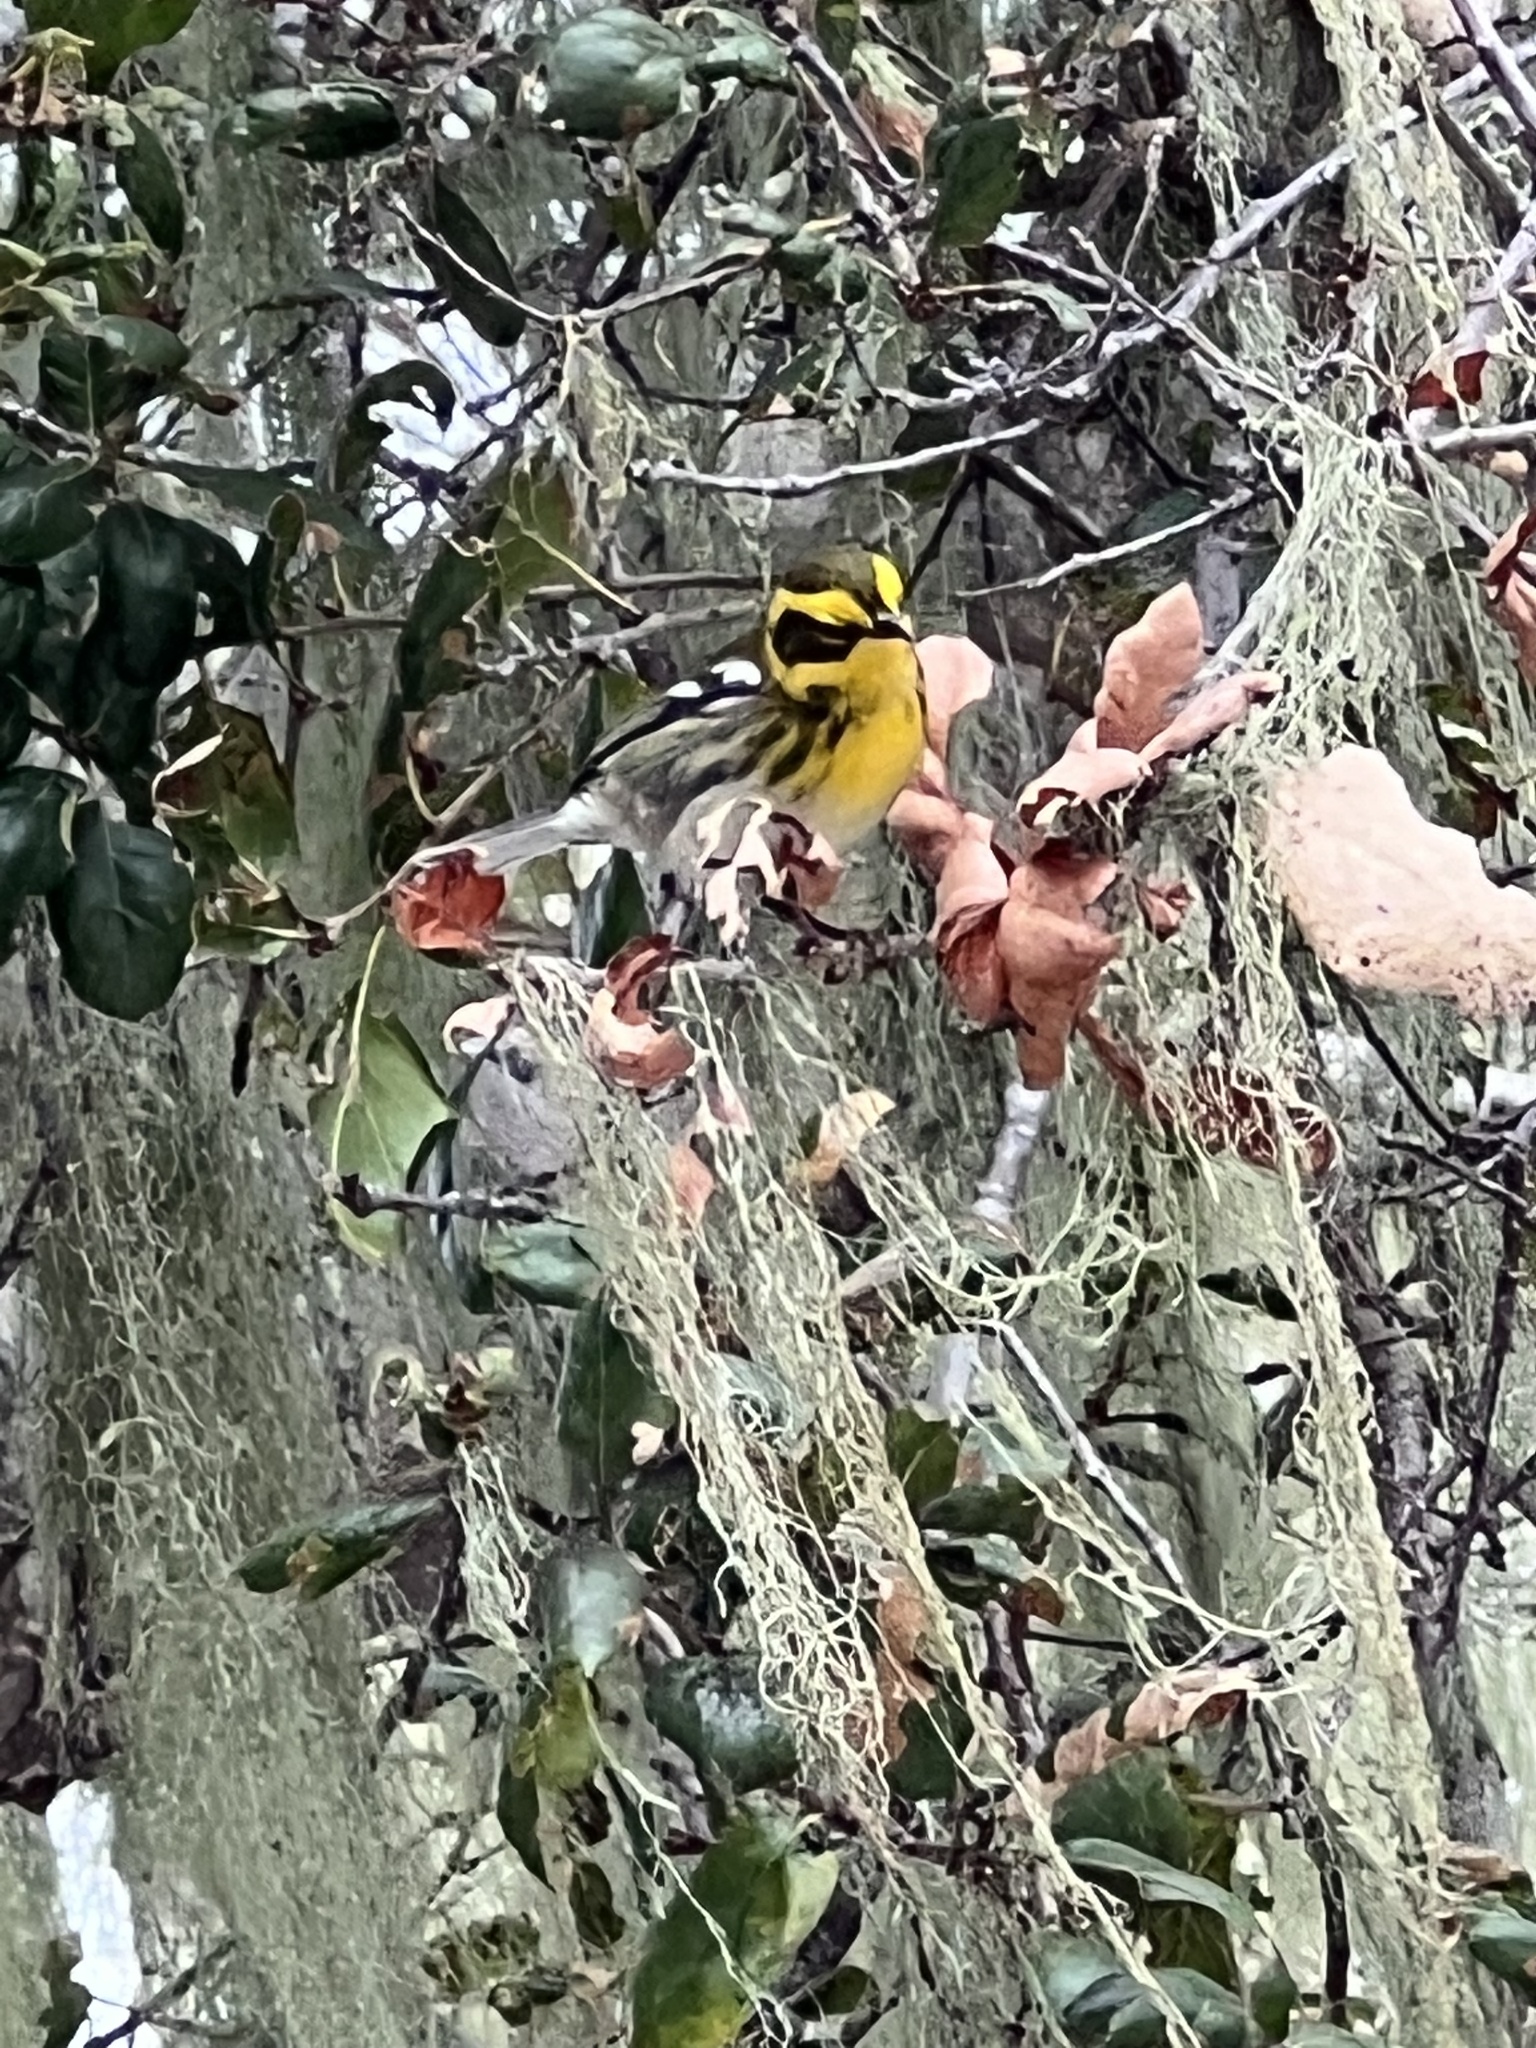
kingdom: Animalia
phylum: Chordata
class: Aves
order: Passeriformes
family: Parulidae
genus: Setophaga
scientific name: Setophaga townsendi
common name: Townsend's warbler
